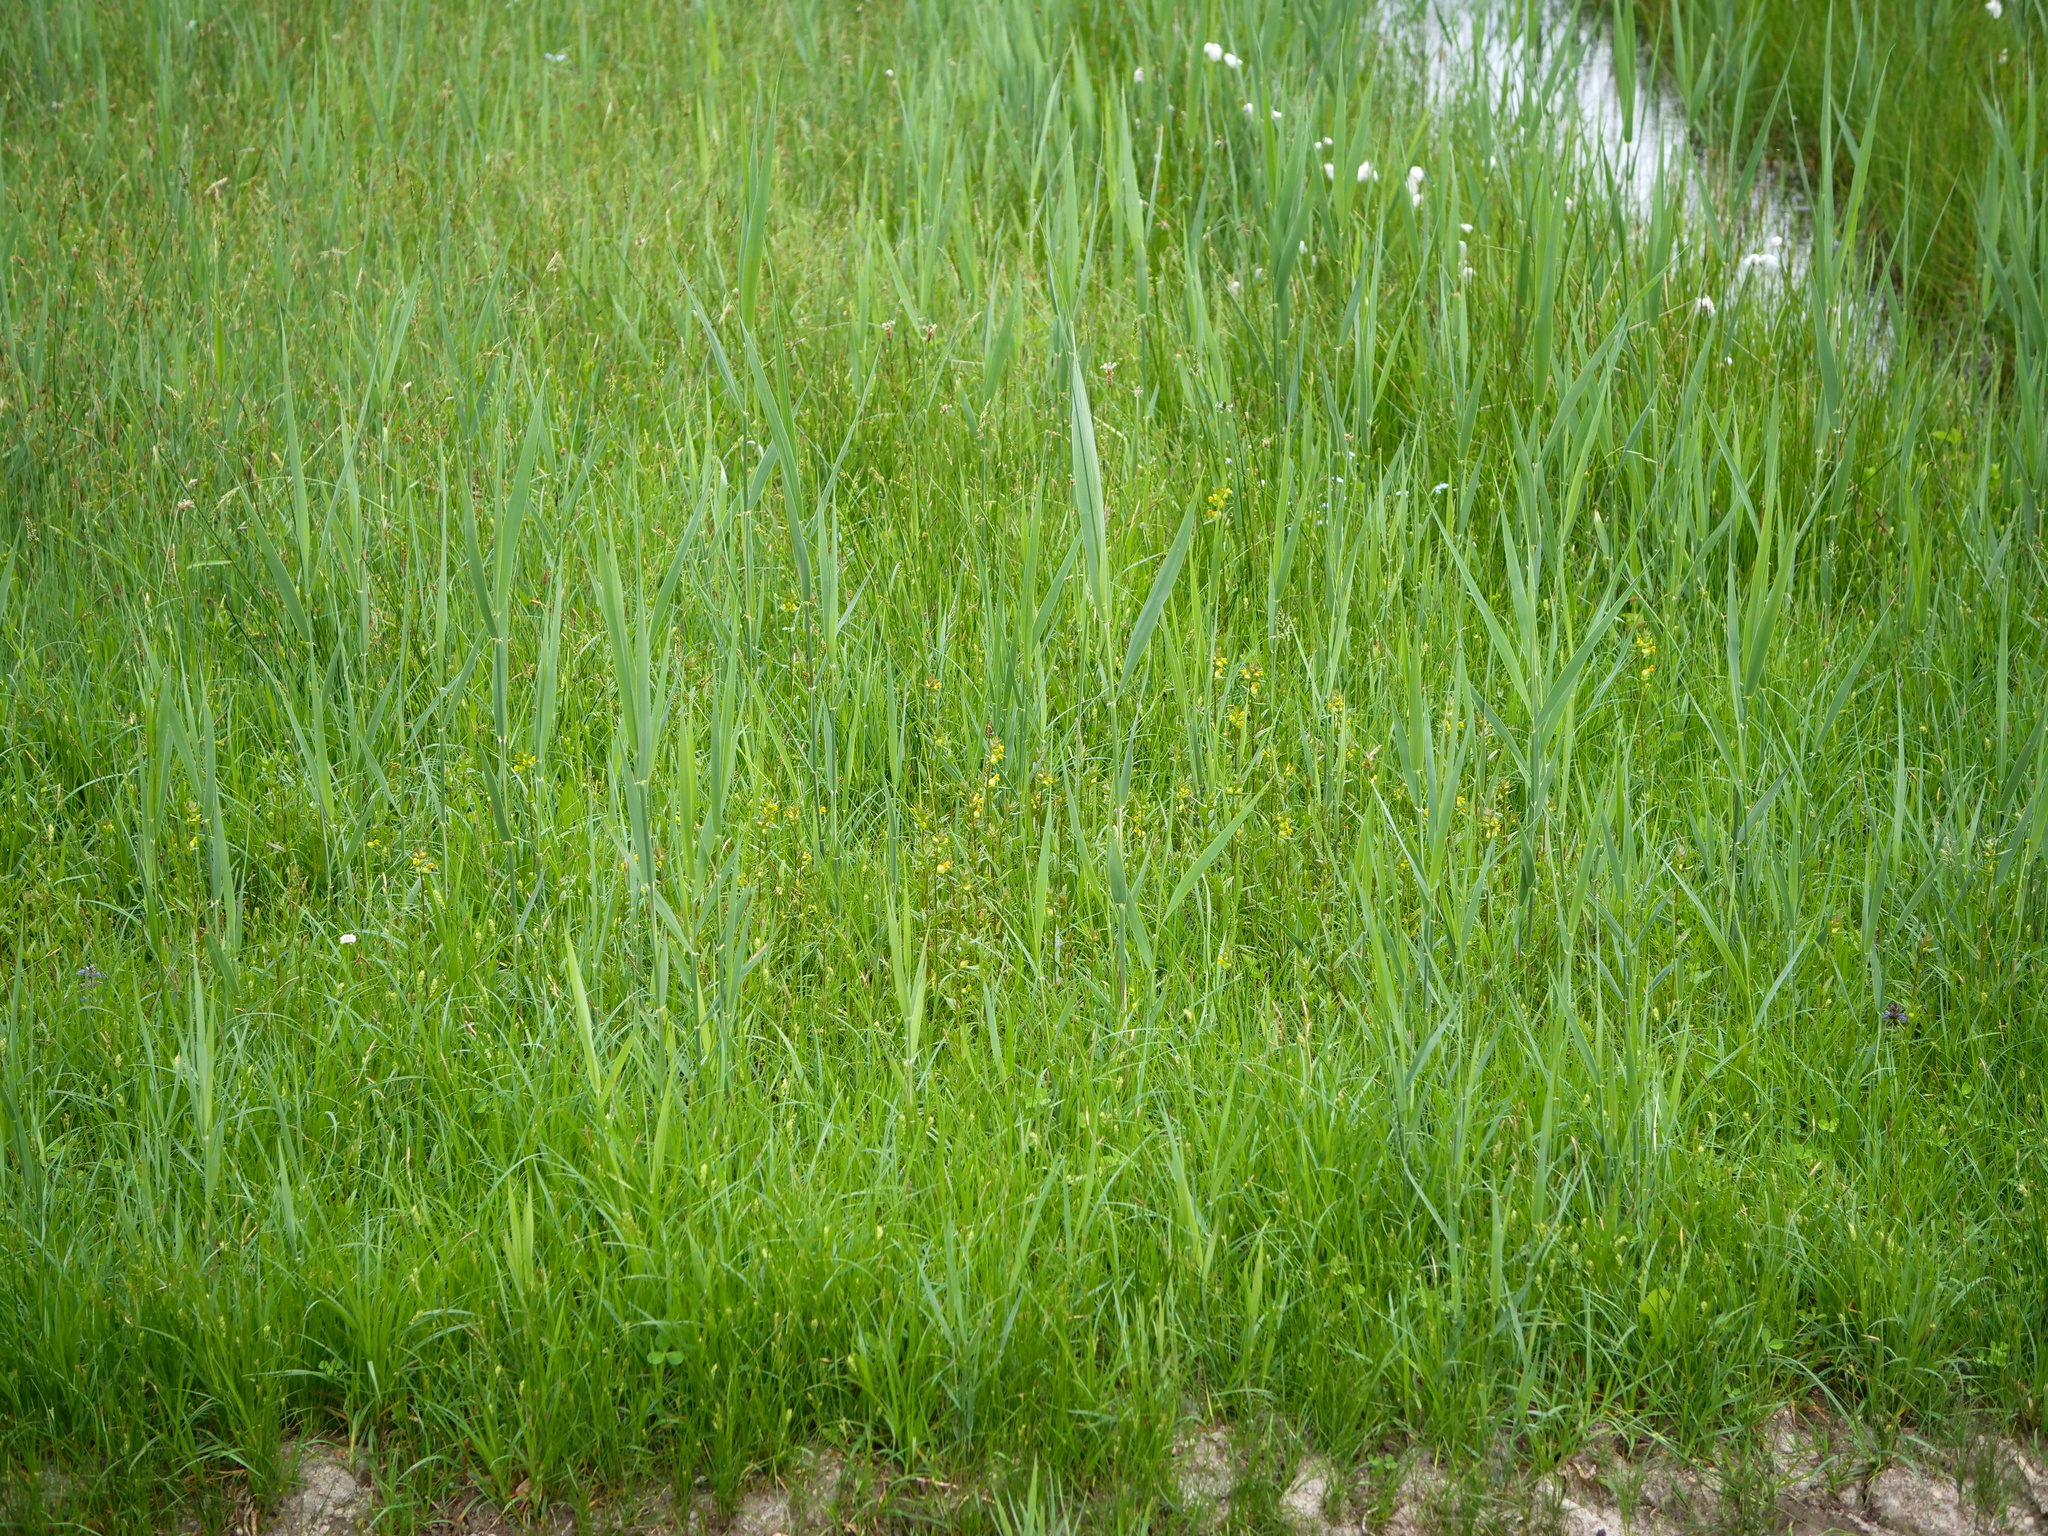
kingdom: Plantae
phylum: Tracheophyta
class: Magnoliopsida
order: Lamiales
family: Orobanchaceae
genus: Rhinanthus
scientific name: Rhinanthus minor
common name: Yellow-rattle
